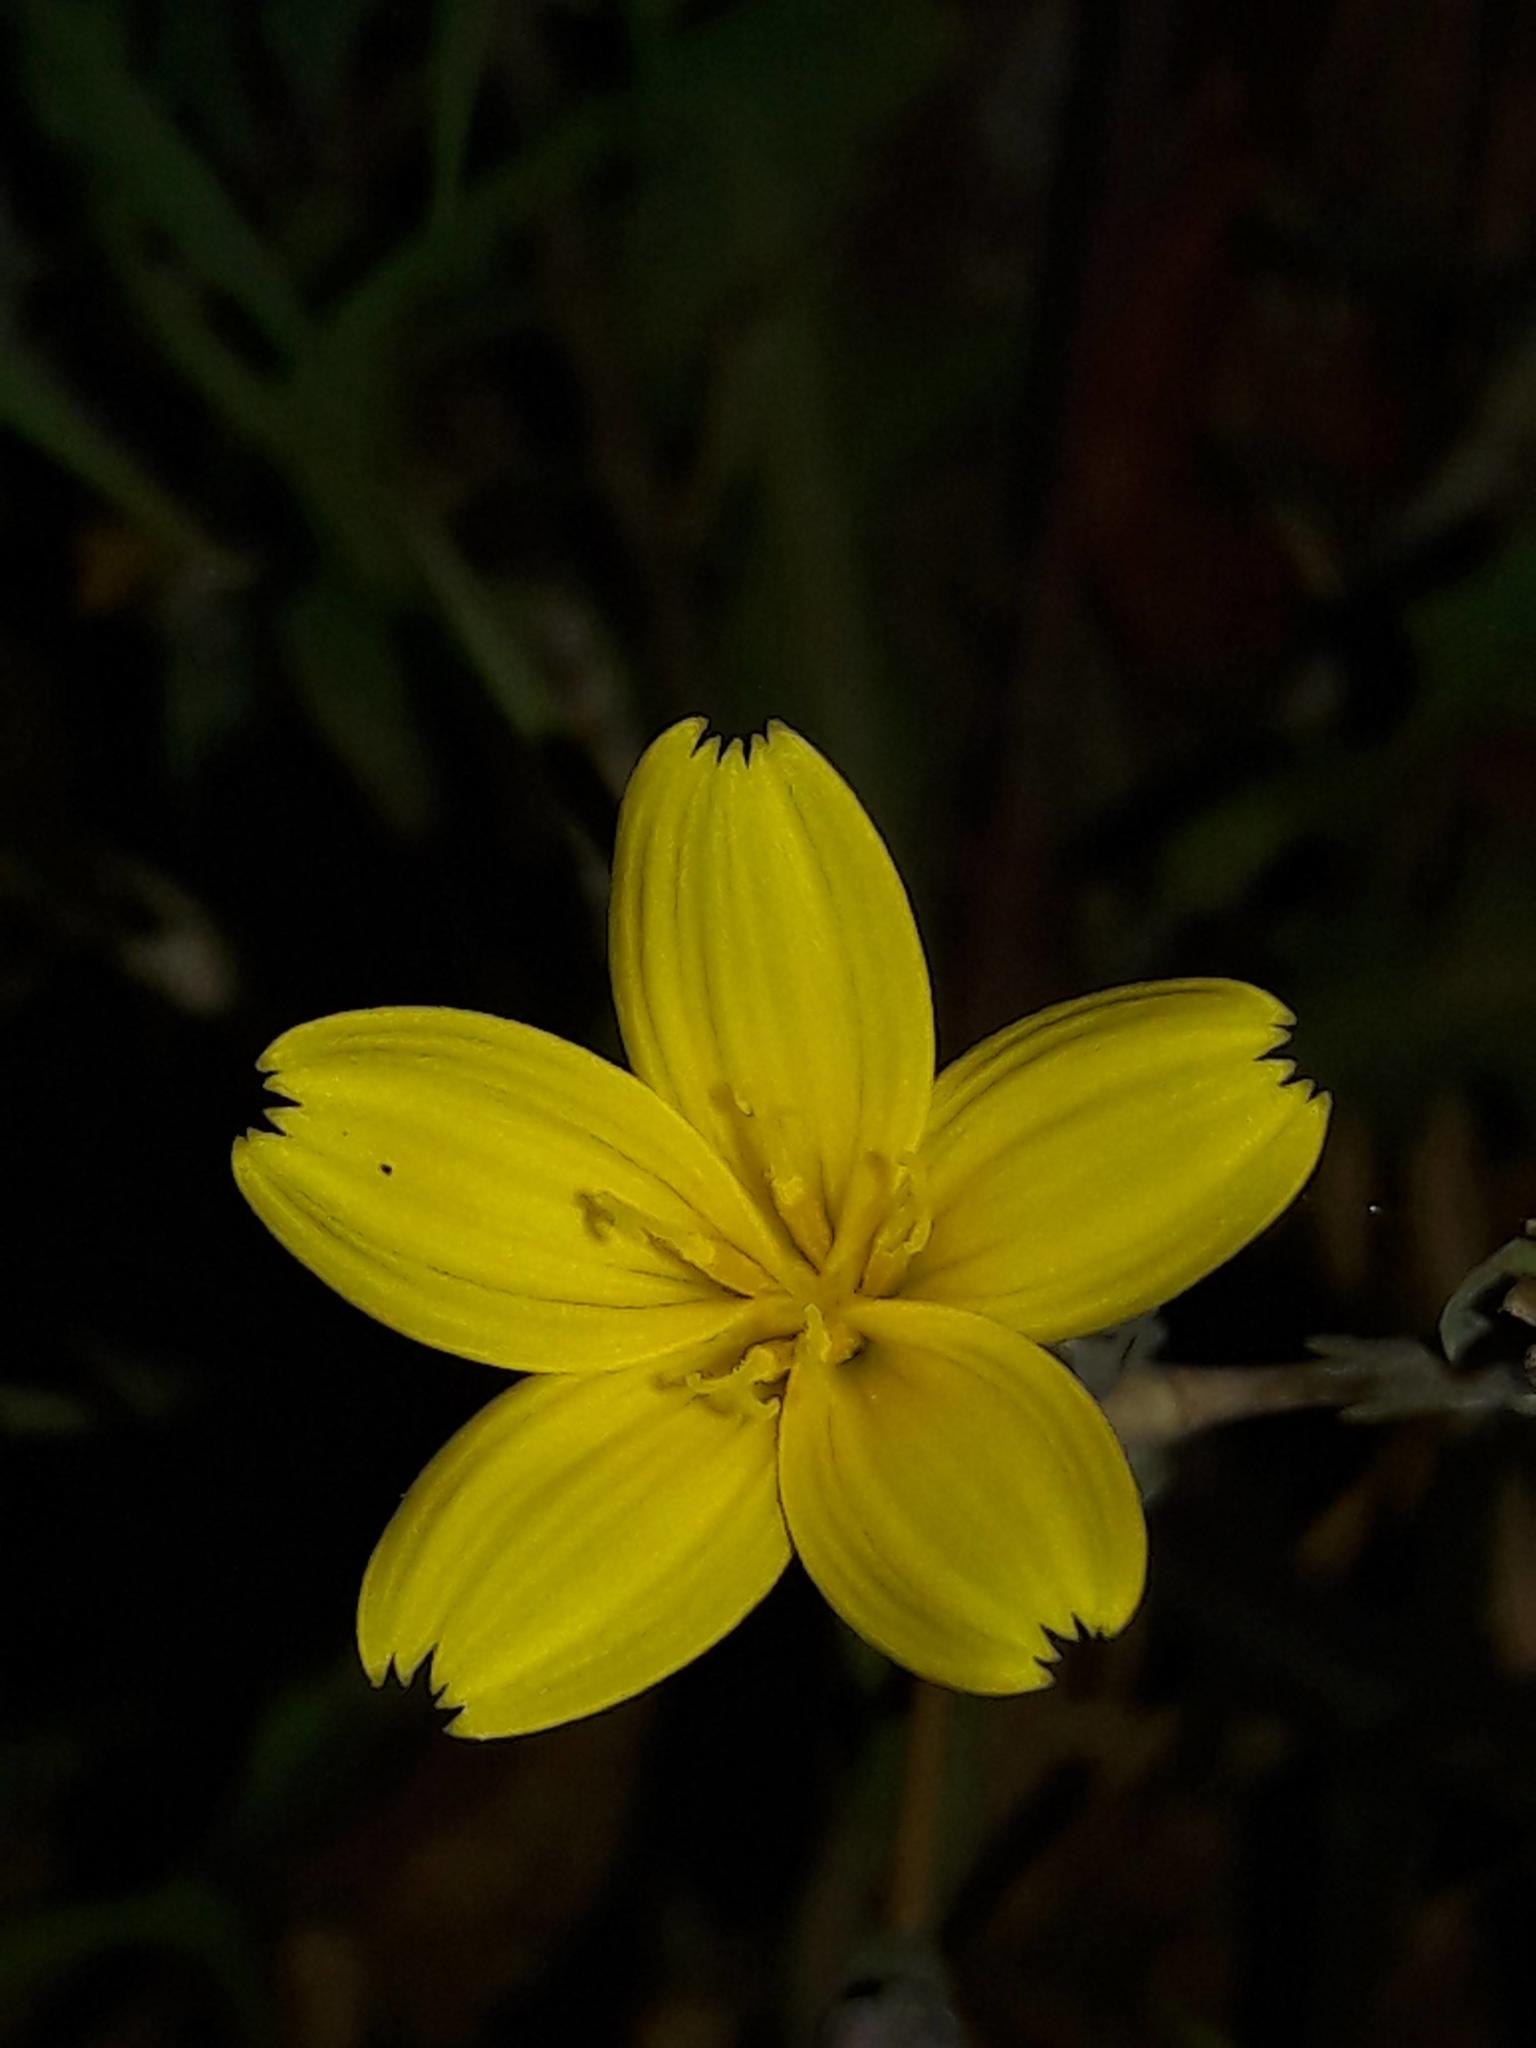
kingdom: Plantae
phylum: Tracheophyta
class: Magnoliopsida
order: Asterales
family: Asteraceae
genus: Lactuca
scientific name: Lactuca viminea
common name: Pliant lettuce
